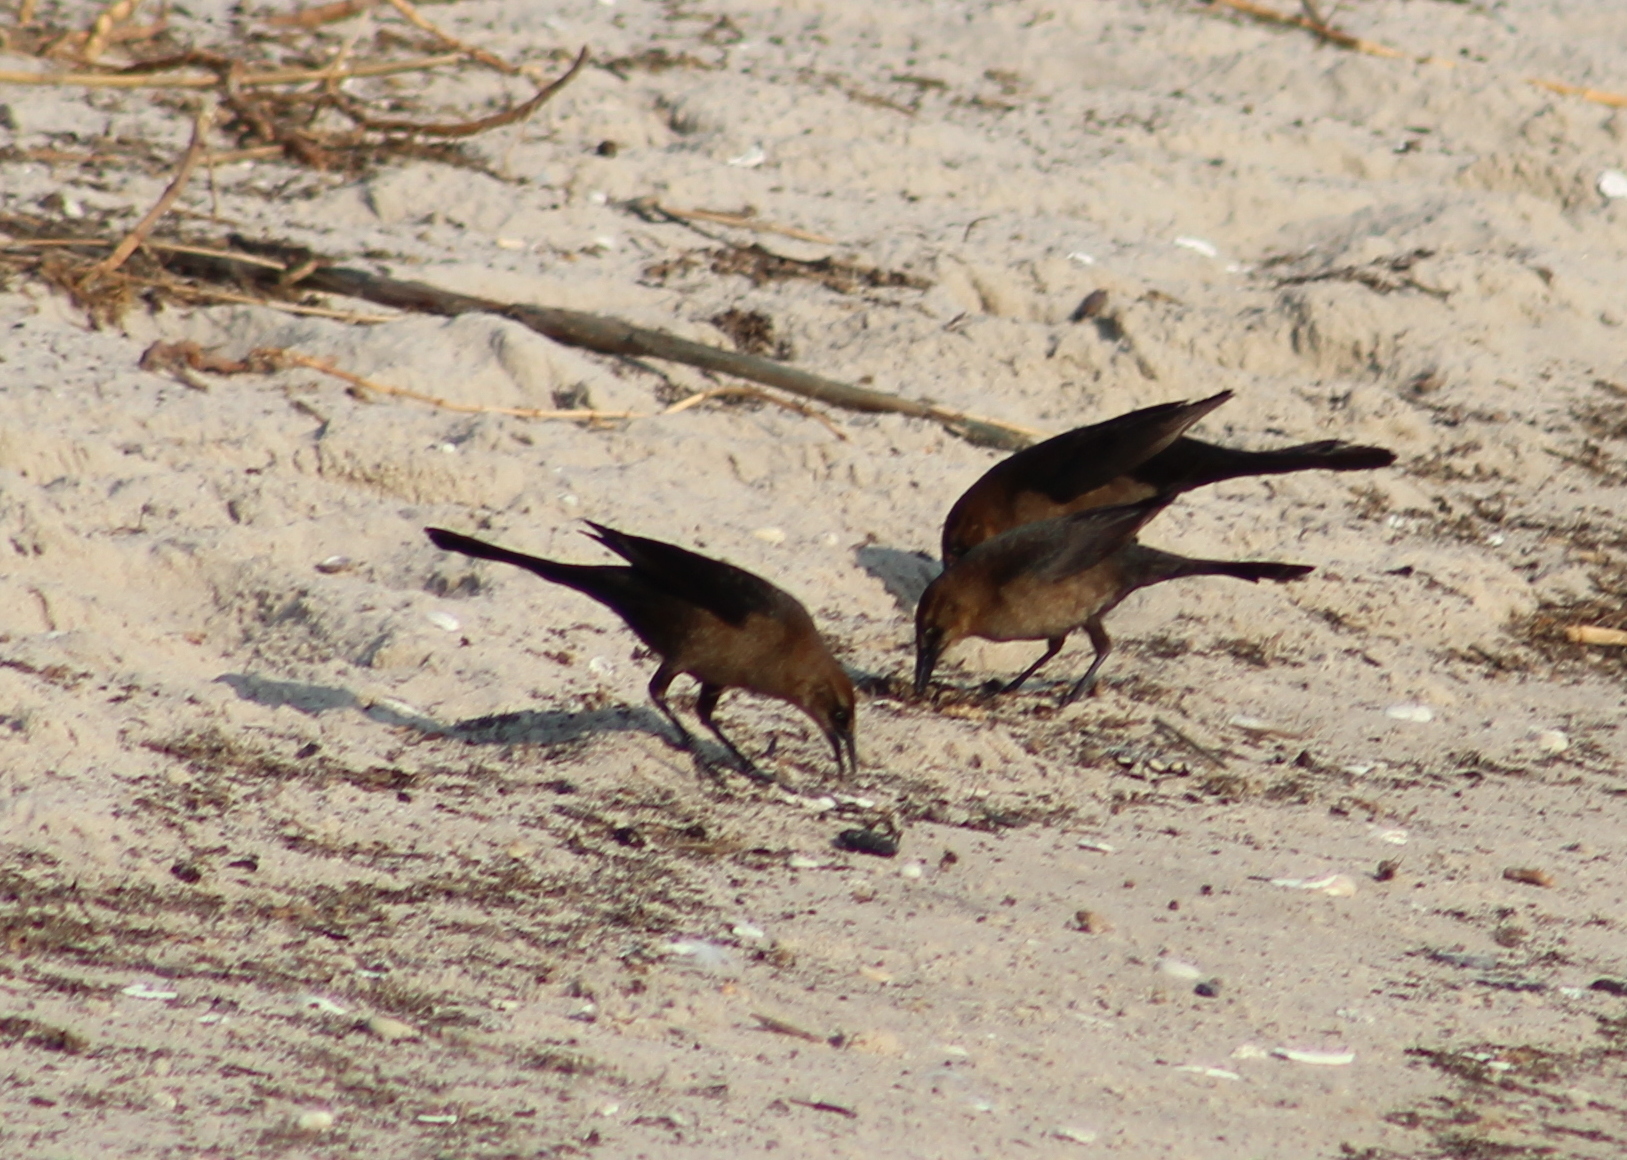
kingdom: Animalia
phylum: Chordata
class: Aves
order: Passeriformes
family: Icteridae
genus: Quiscalus
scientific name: Quiscalus major
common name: Boat-tailed grackle
